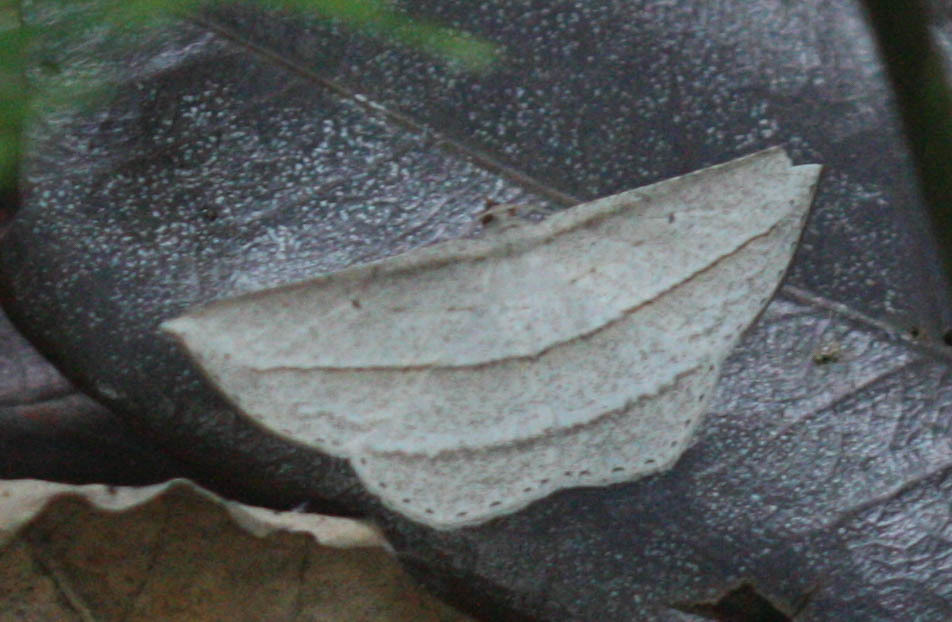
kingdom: Animalia
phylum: Arthropoda
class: Insecta
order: Lepidoptera
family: Geometridae
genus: Heteralex
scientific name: Heteralex rectilineata
